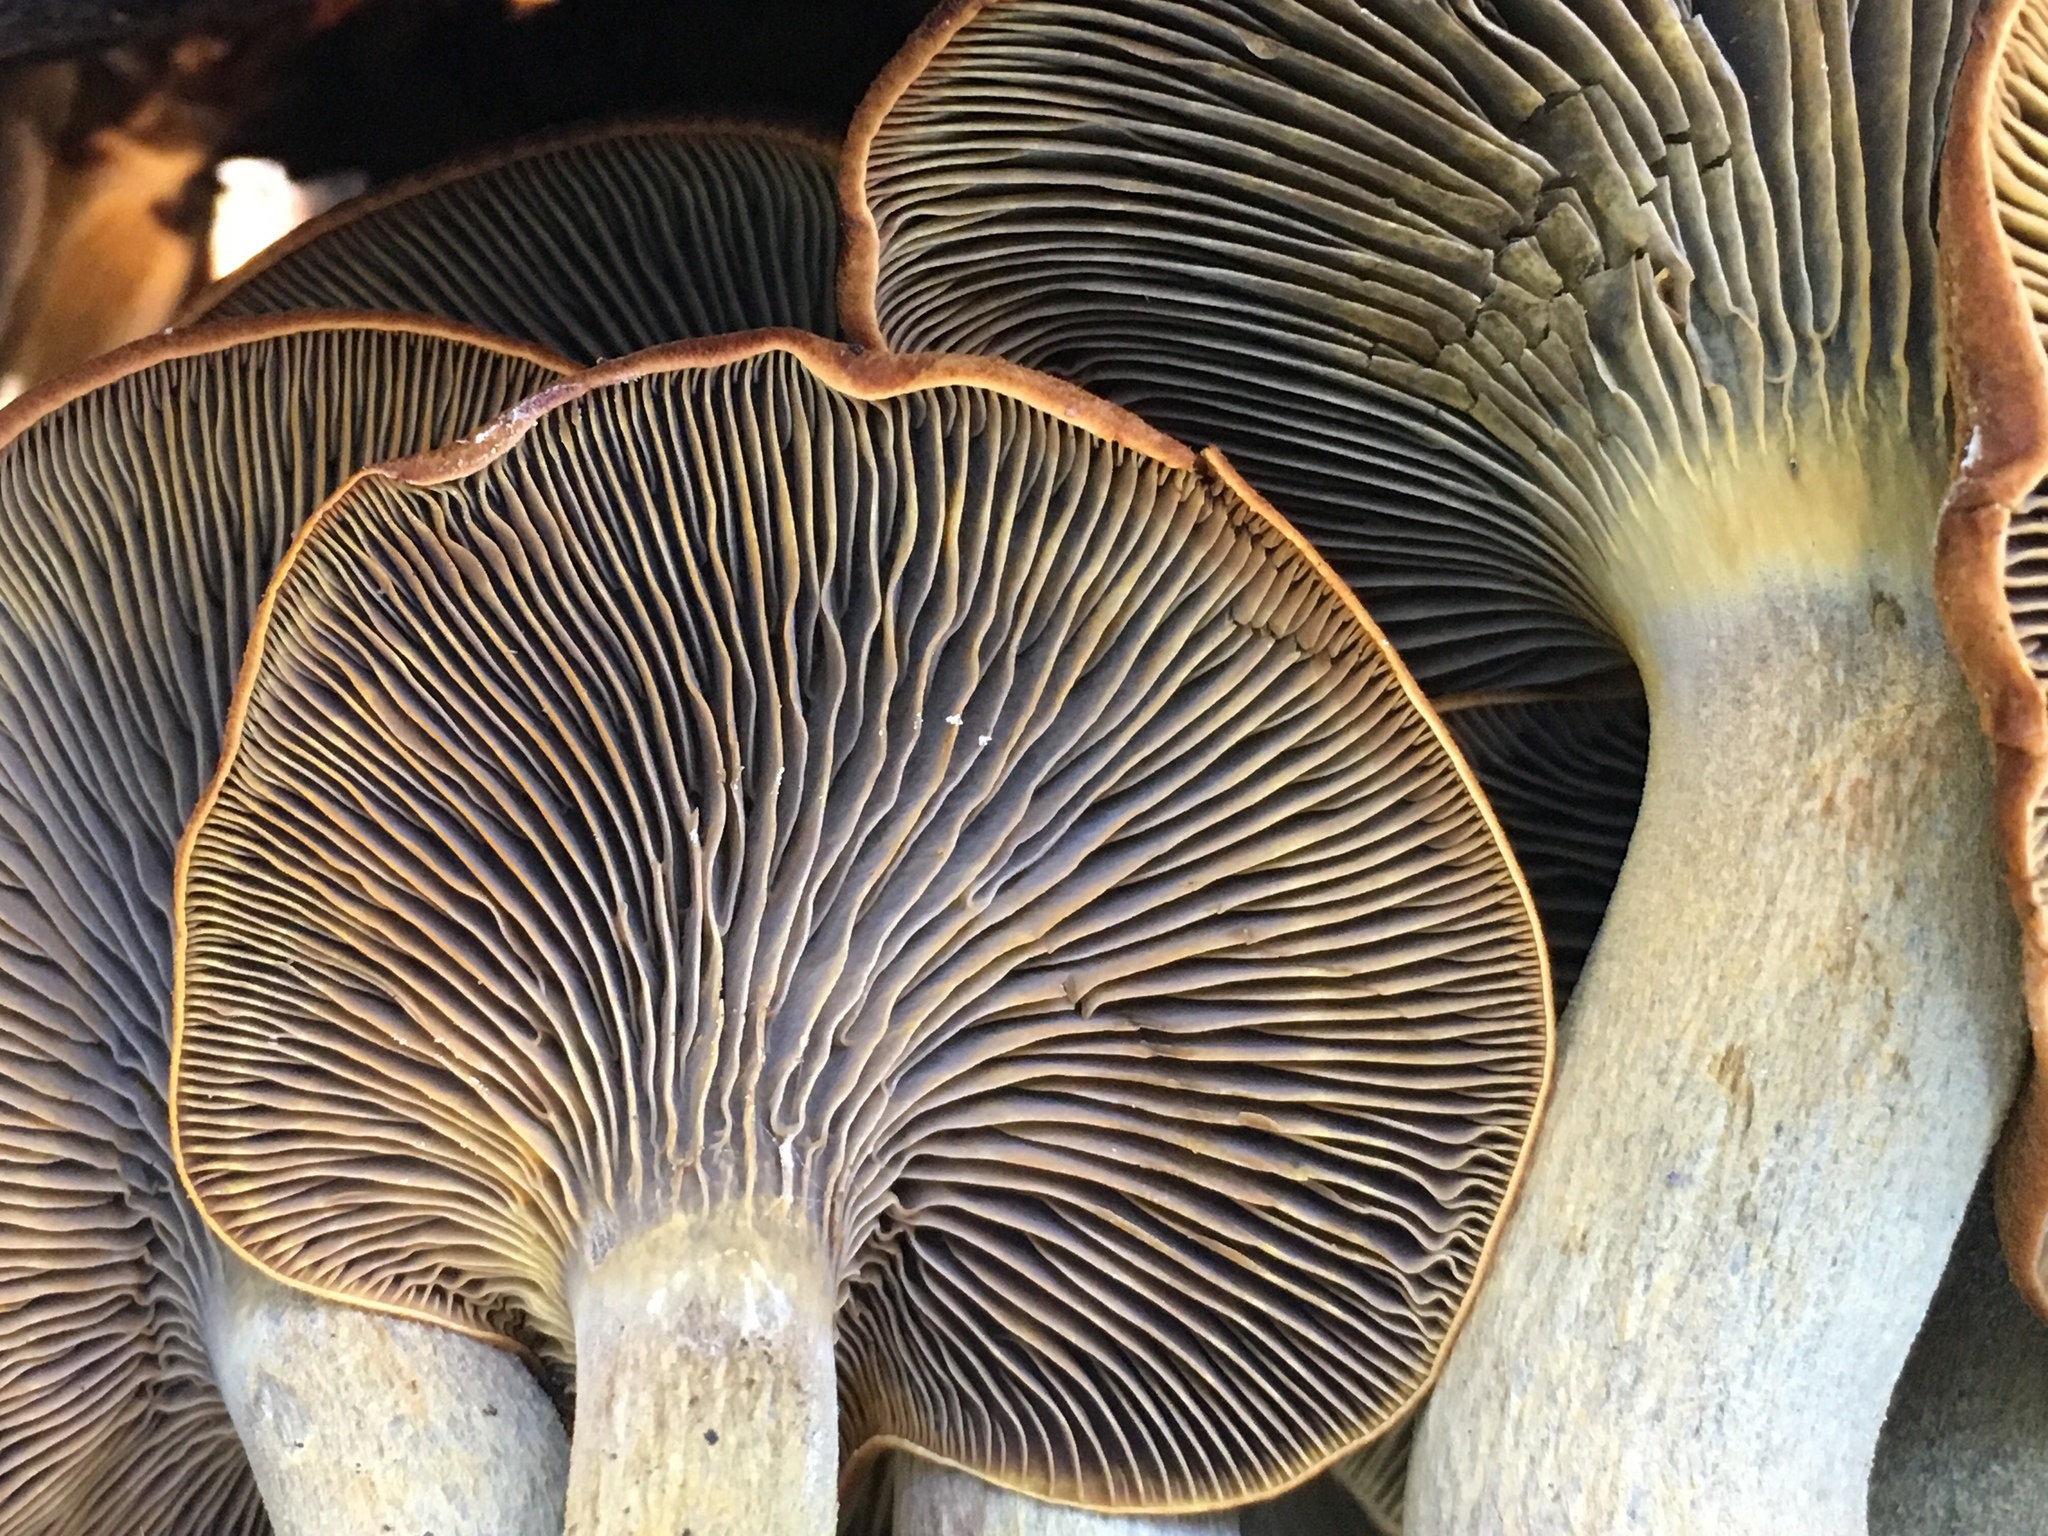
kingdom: Fungi
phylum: Basidiomycota
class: Agaricomycetes
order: Agaricales
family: Omphalotaceae
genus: Omphalotus
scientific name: Omphalotus olivascens
